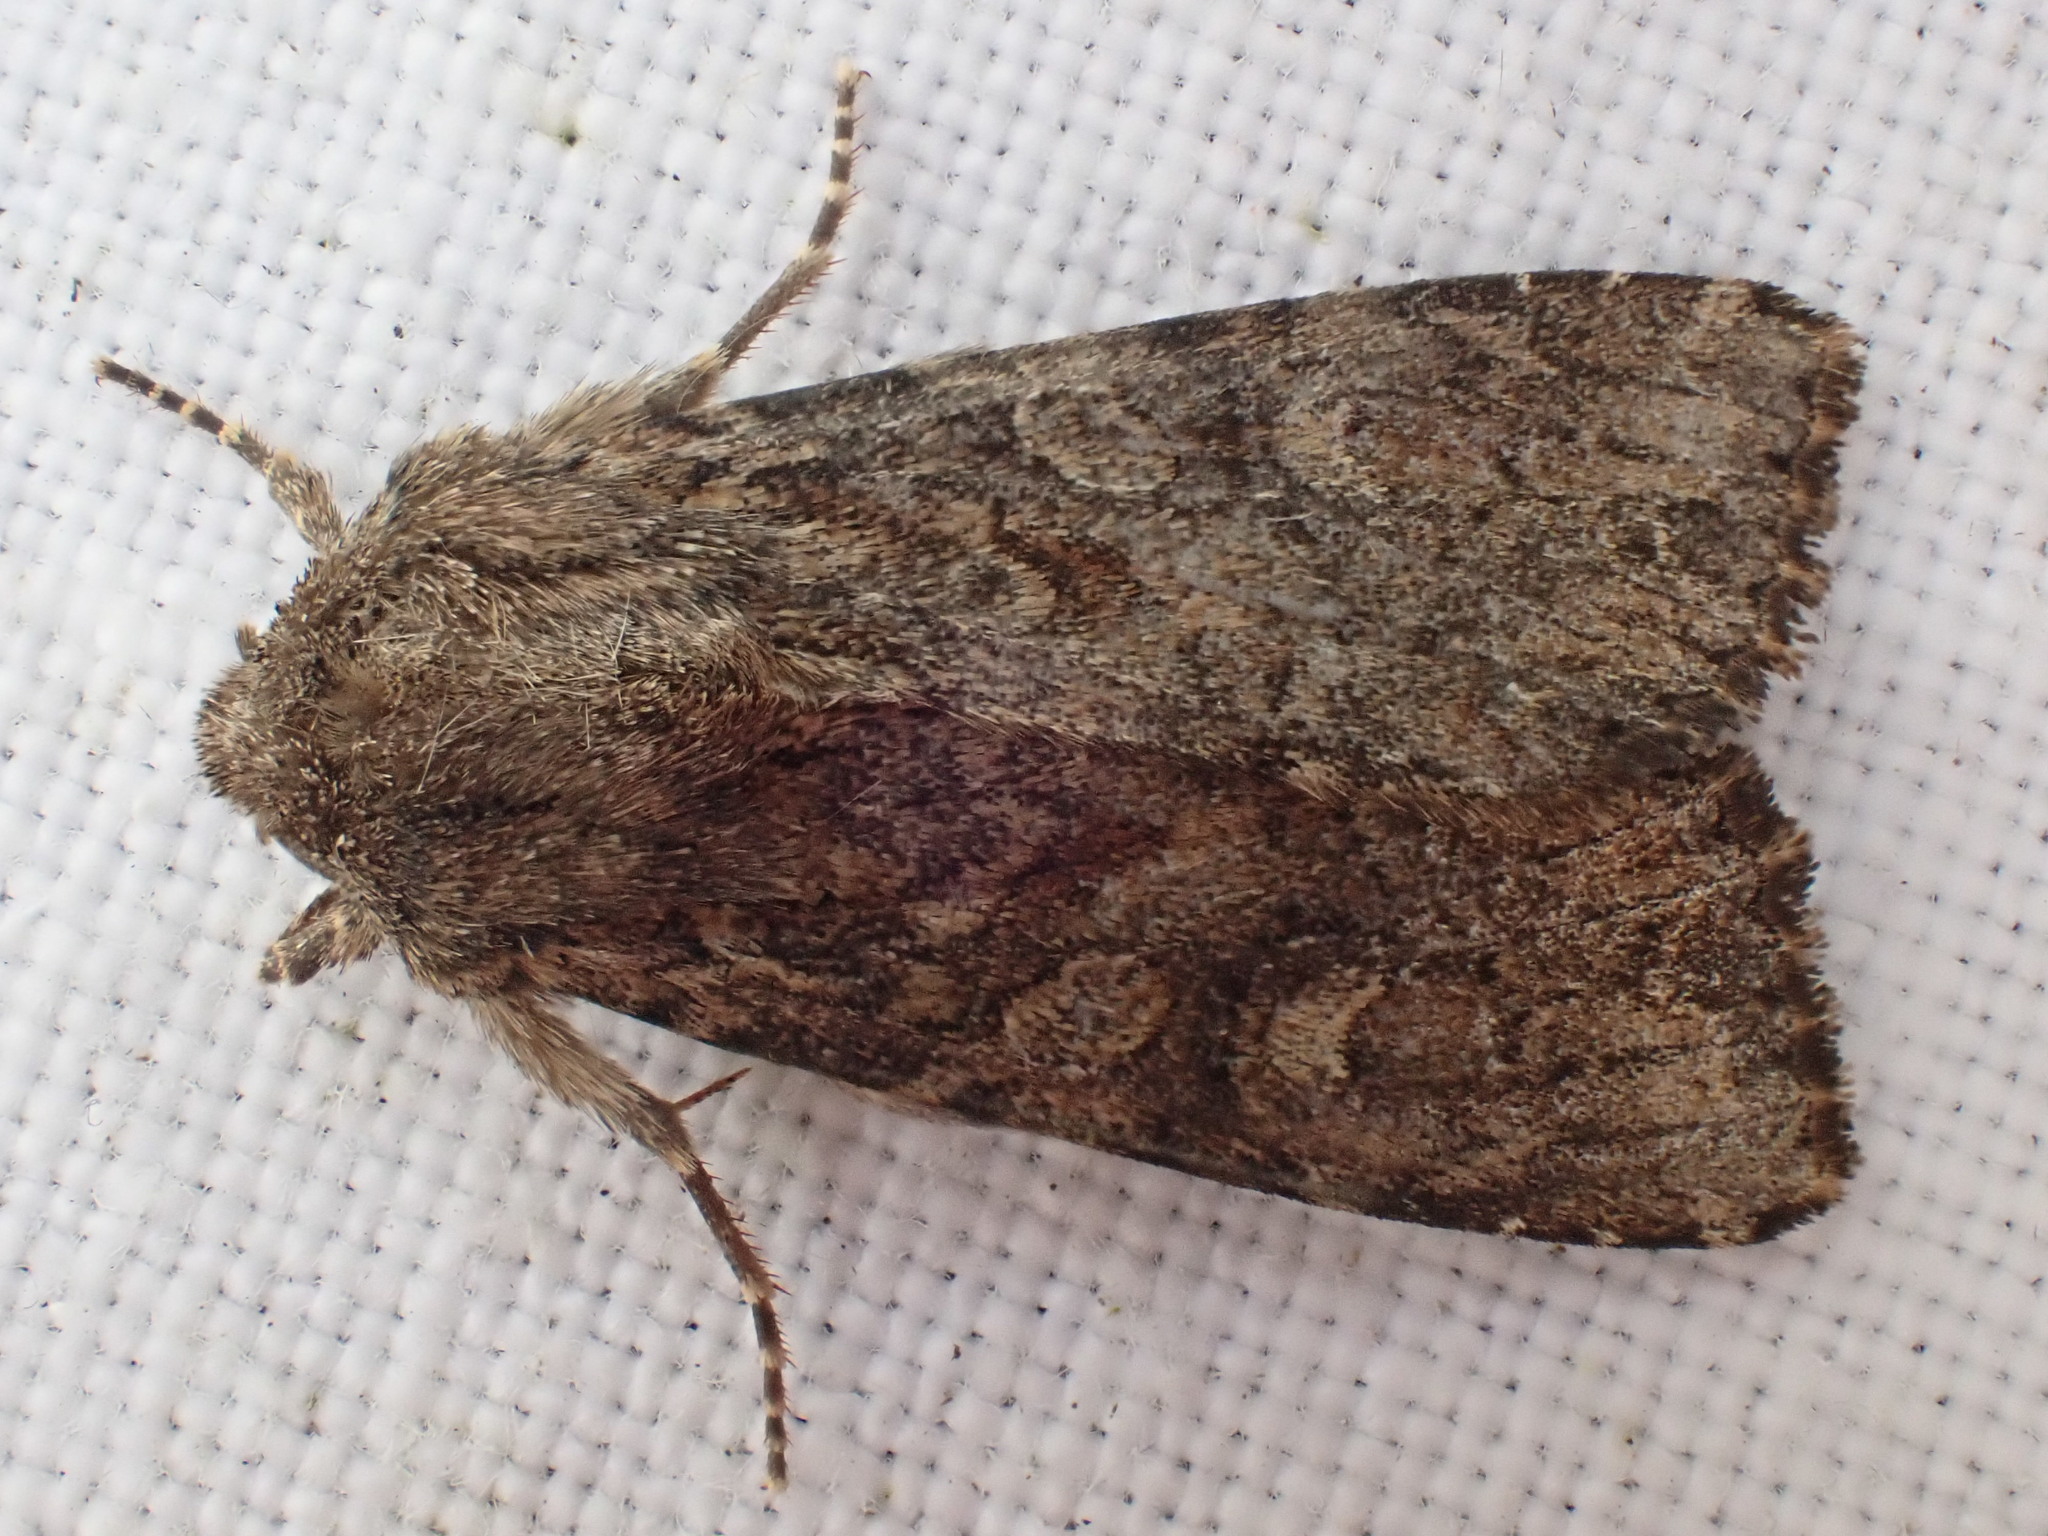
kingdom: Animalia
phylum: Arthropoda
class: Insecta
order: Lepidoptera
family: Noctuidae
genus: Apamea
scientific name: Apamea anceps
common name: Large nutmeg
